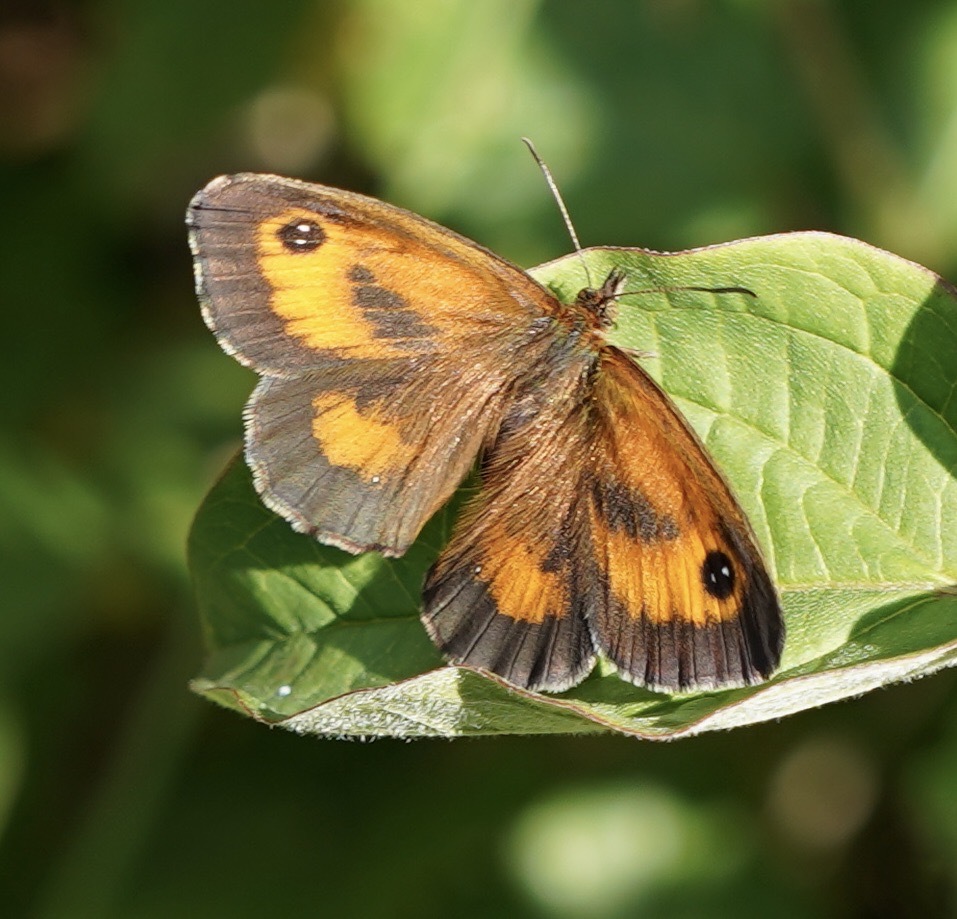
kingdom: Animalia
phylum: Arthropoda
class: Insecta
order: Lepidoptera
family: Nymphalidae
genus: Pyronia
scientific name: Pyronia tithonus
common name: Gatekeeper
